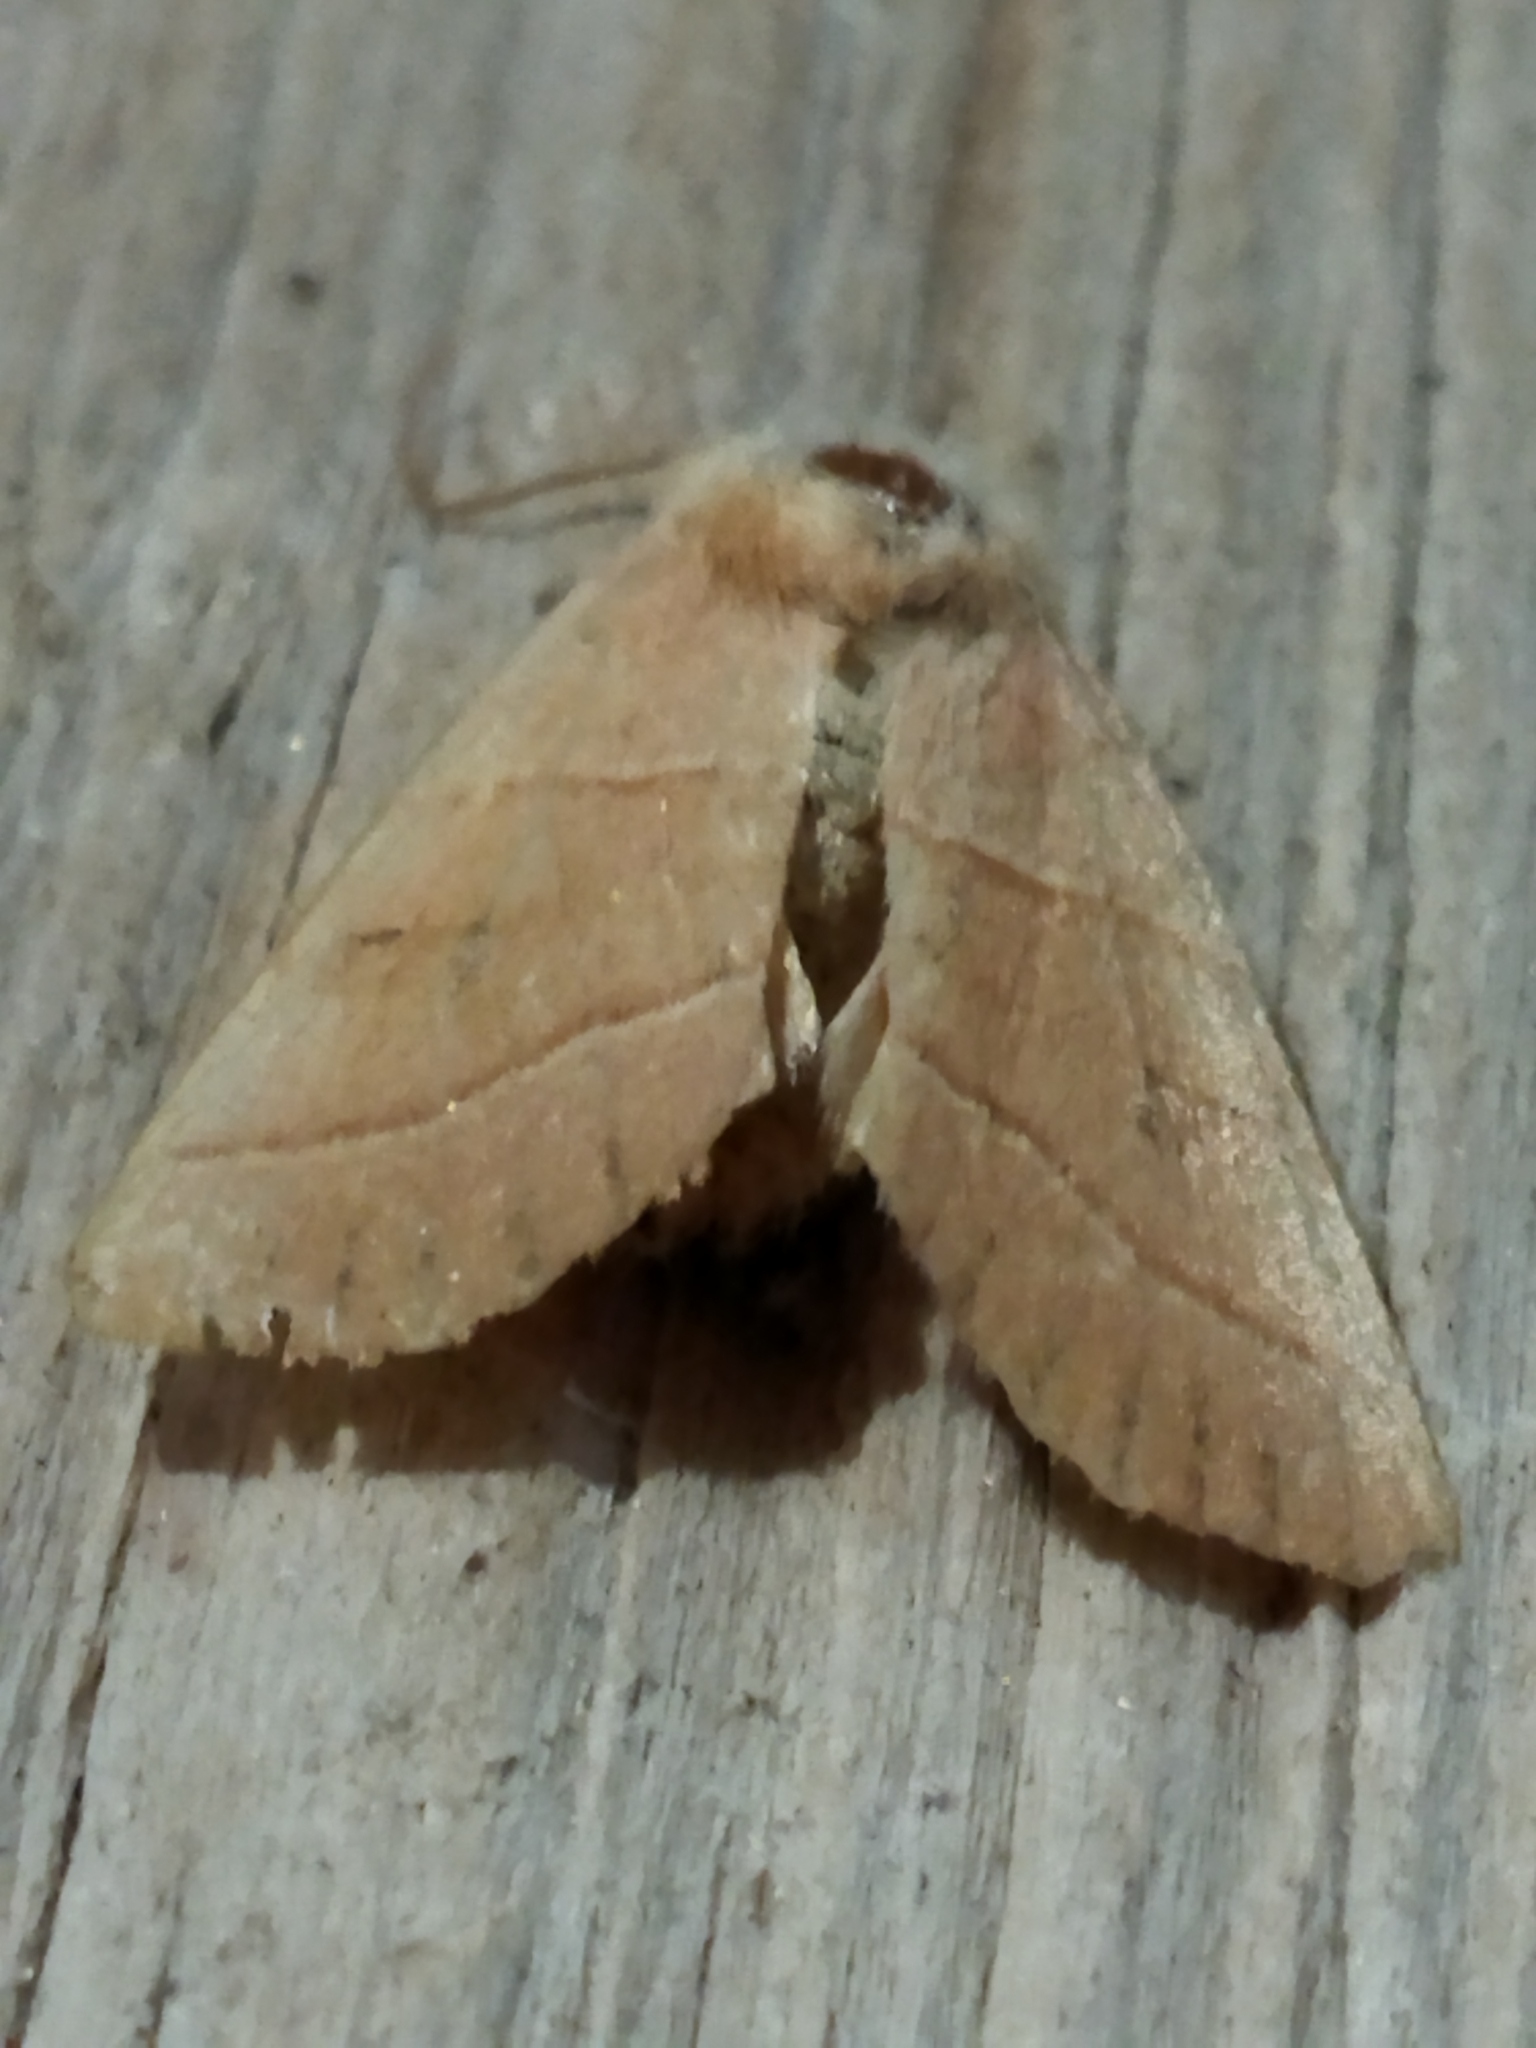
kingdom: Animalia
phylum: Arthropoda
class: Insecta
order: Lepidoptera
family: Noctuidae
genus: Atethmia
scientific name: Atethmia centrago
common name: Centre-barred sallow
